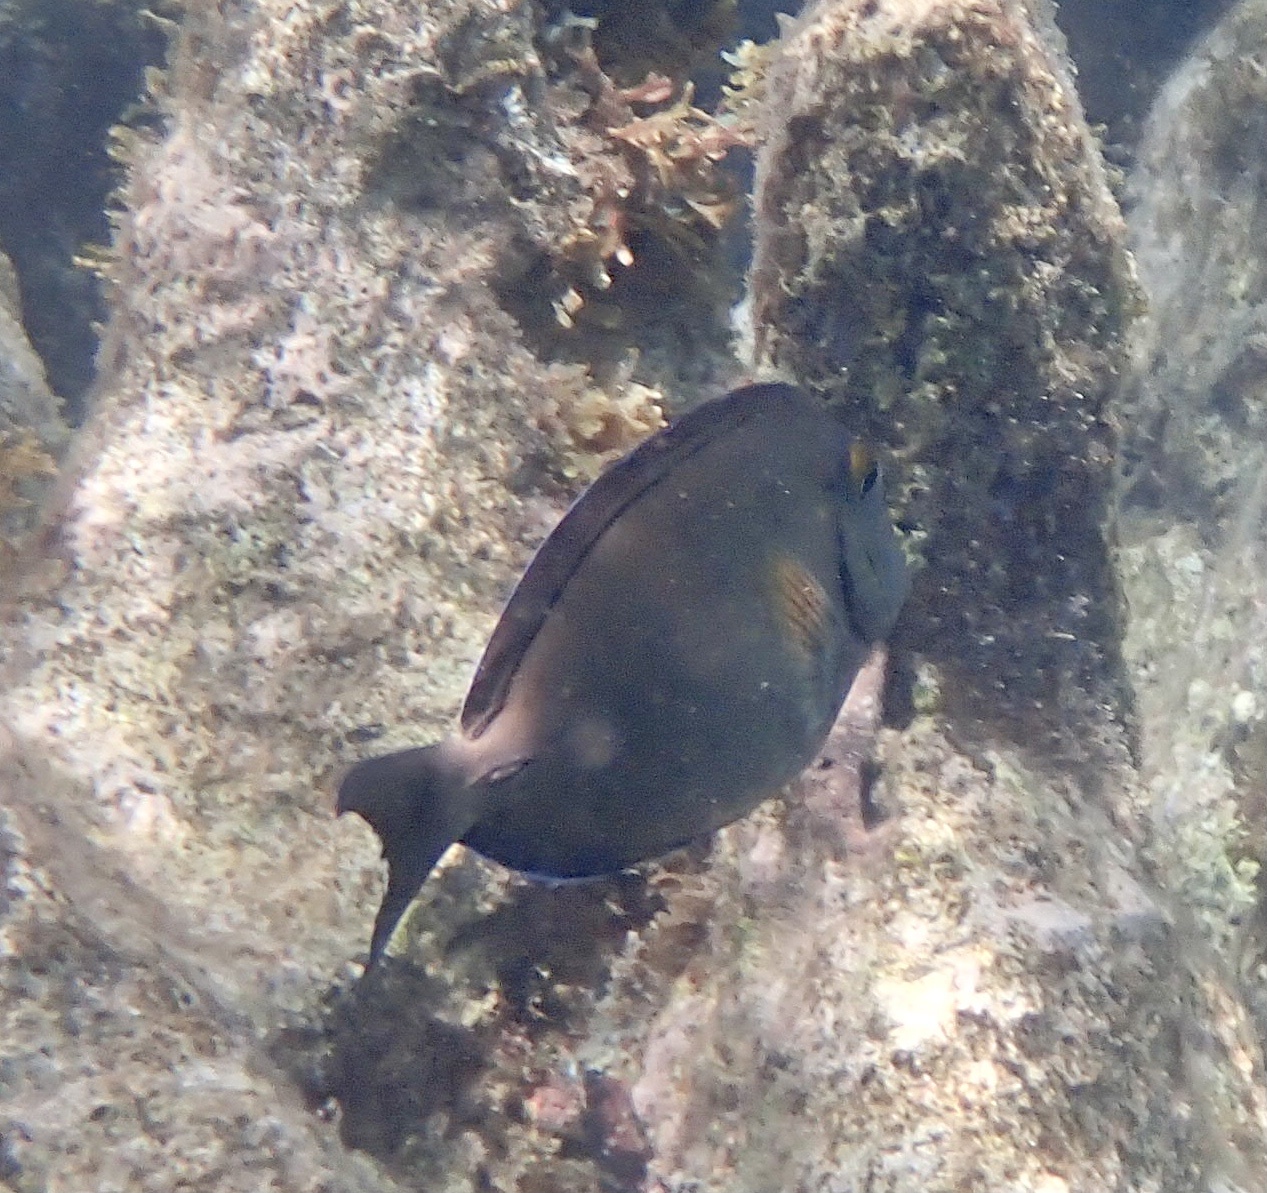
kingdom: Animalia
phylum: Chordata
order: Perciformes
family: Acanthuridae
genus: Acanthurus
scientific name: Acanthurus bahianus
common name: Ocean surgeon
